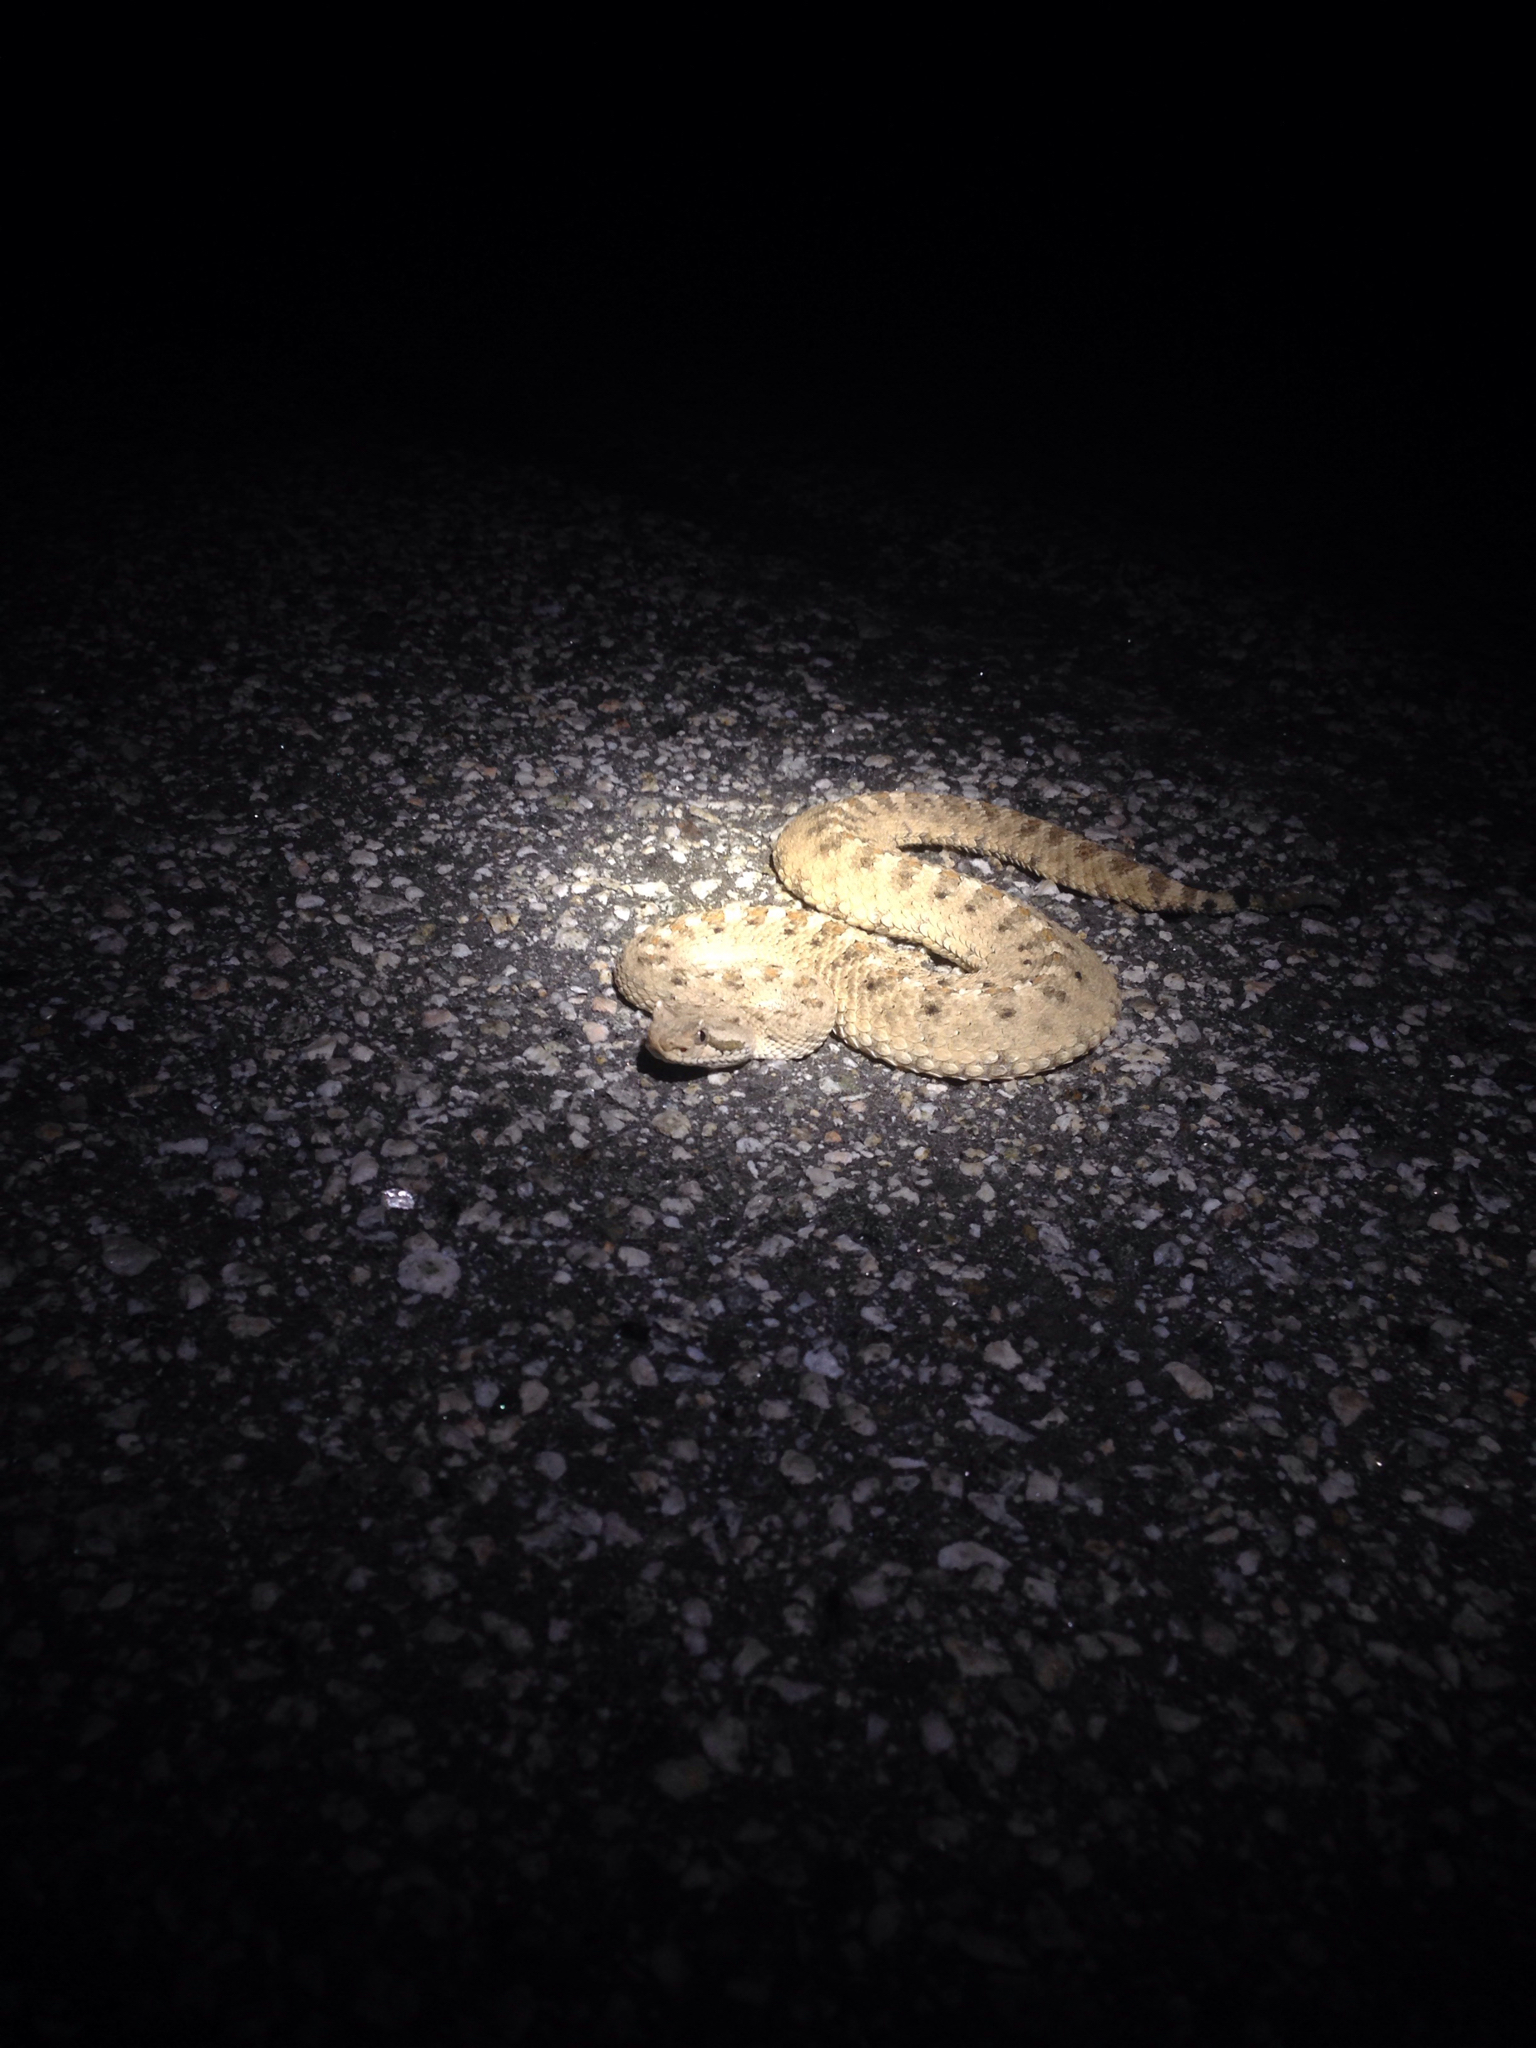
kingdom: Animalia
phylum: Chordata
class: Squamata
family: Viperidae
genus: Crotalus
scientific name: Crotalus cerastes
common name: Sidewinder
